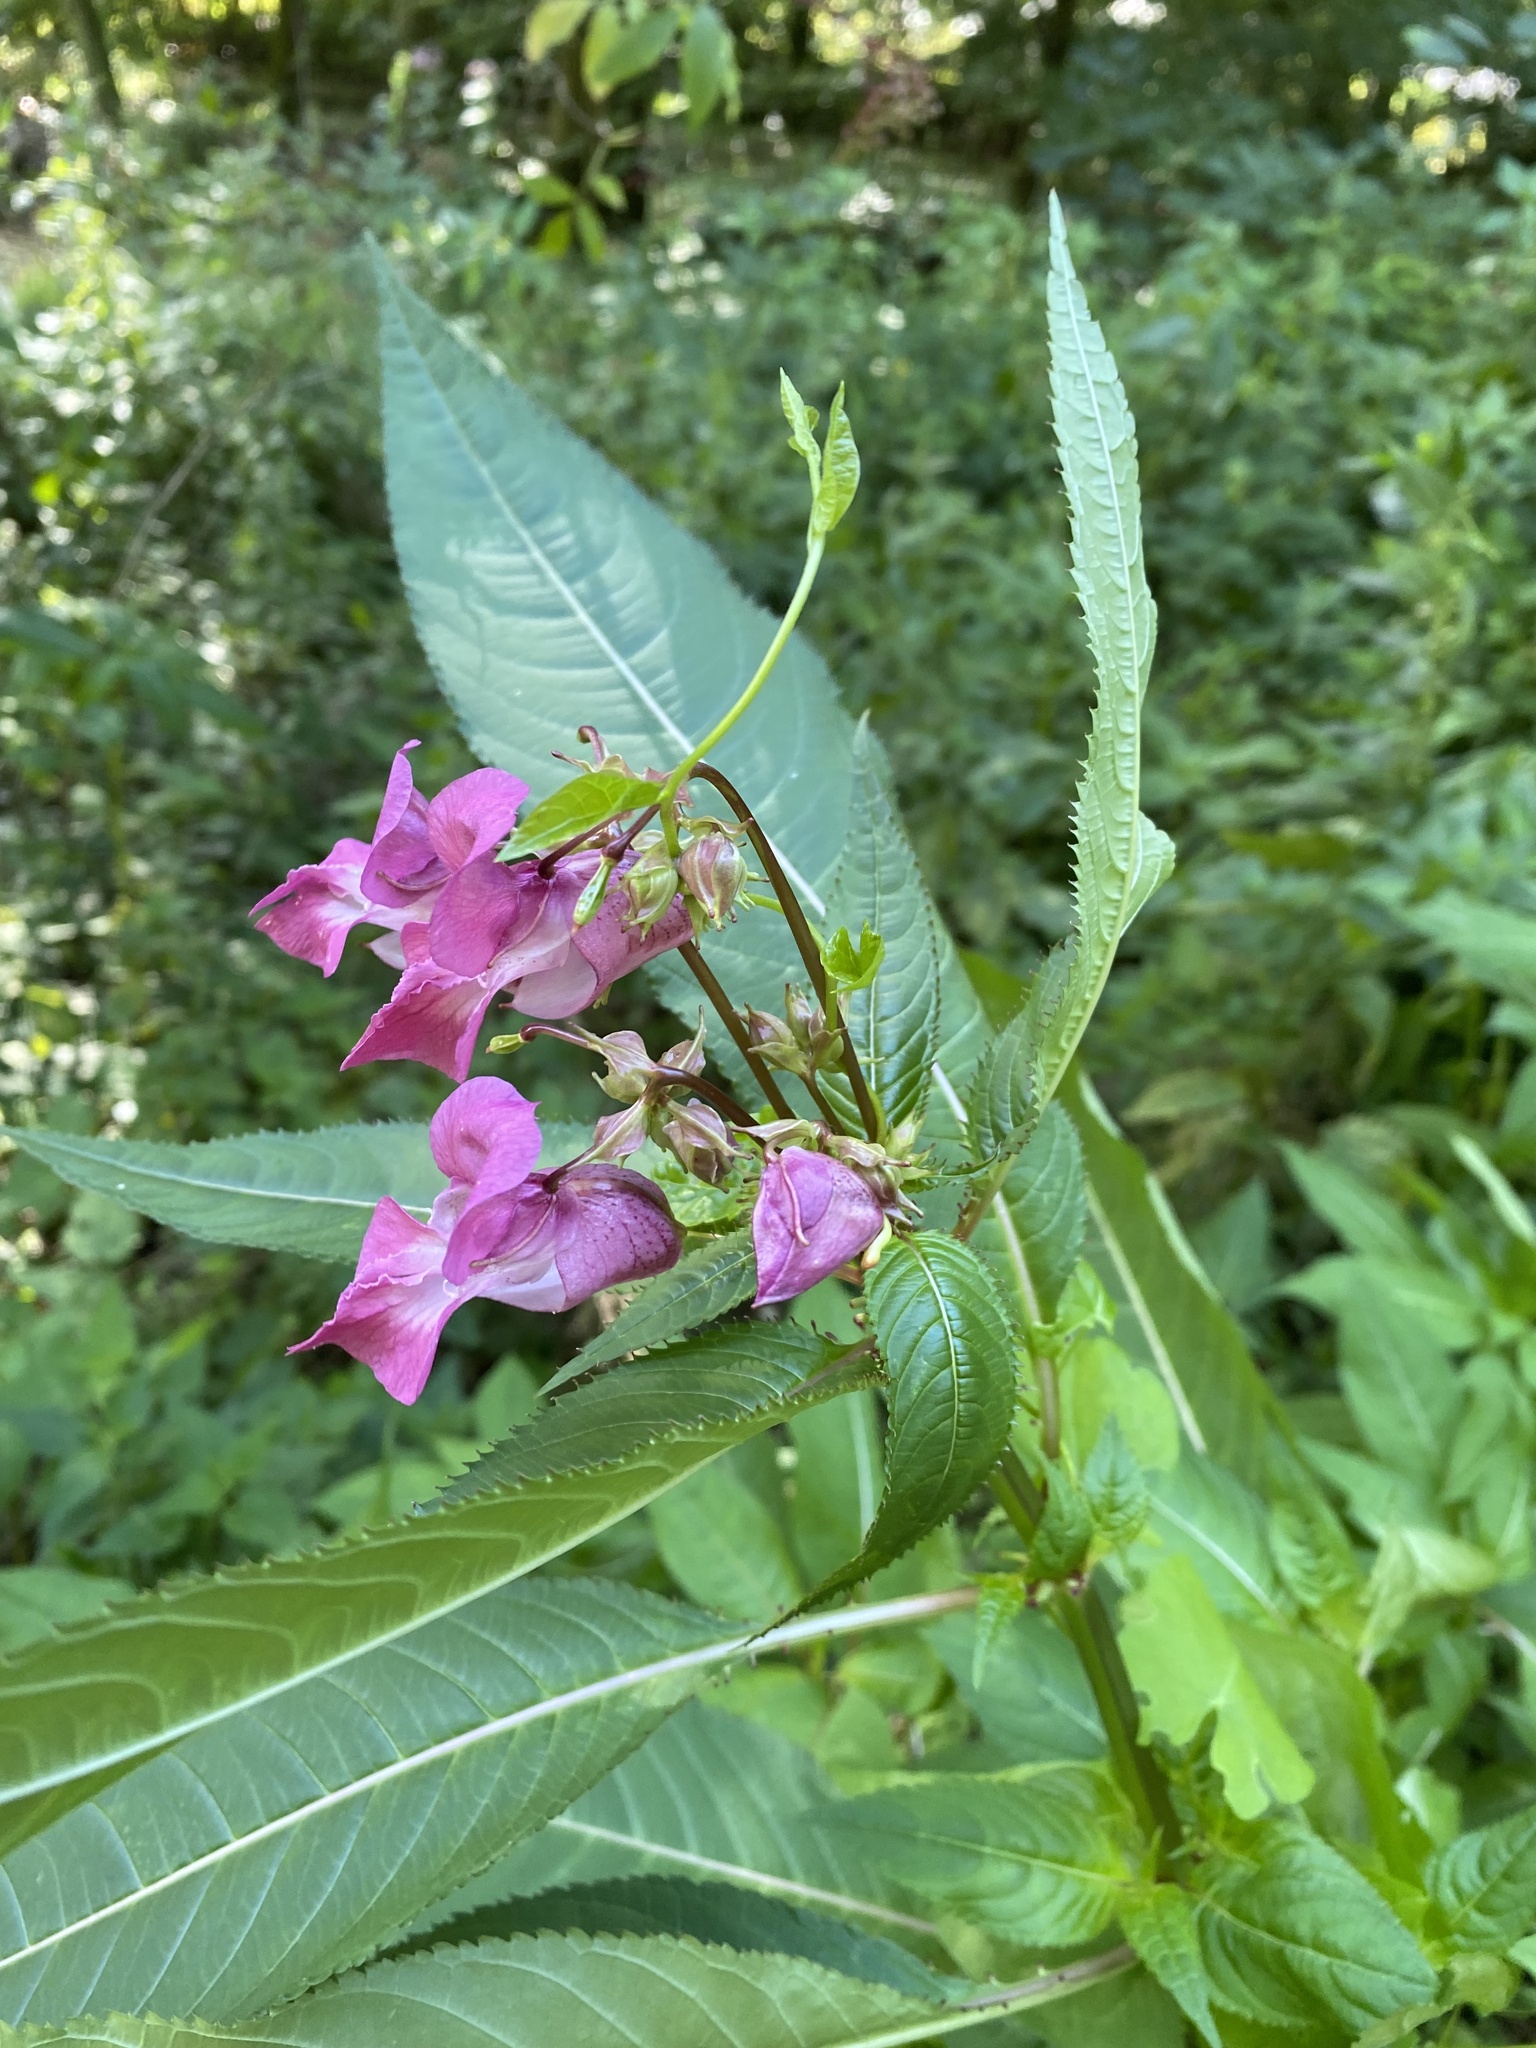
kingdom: Plantae
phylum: Tracheophyta
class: Magnoliopsida
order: Ericales
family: Balsaminaceae
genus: Impatiens
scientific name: Impatiens glandulifera
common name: Himalayan balsam
